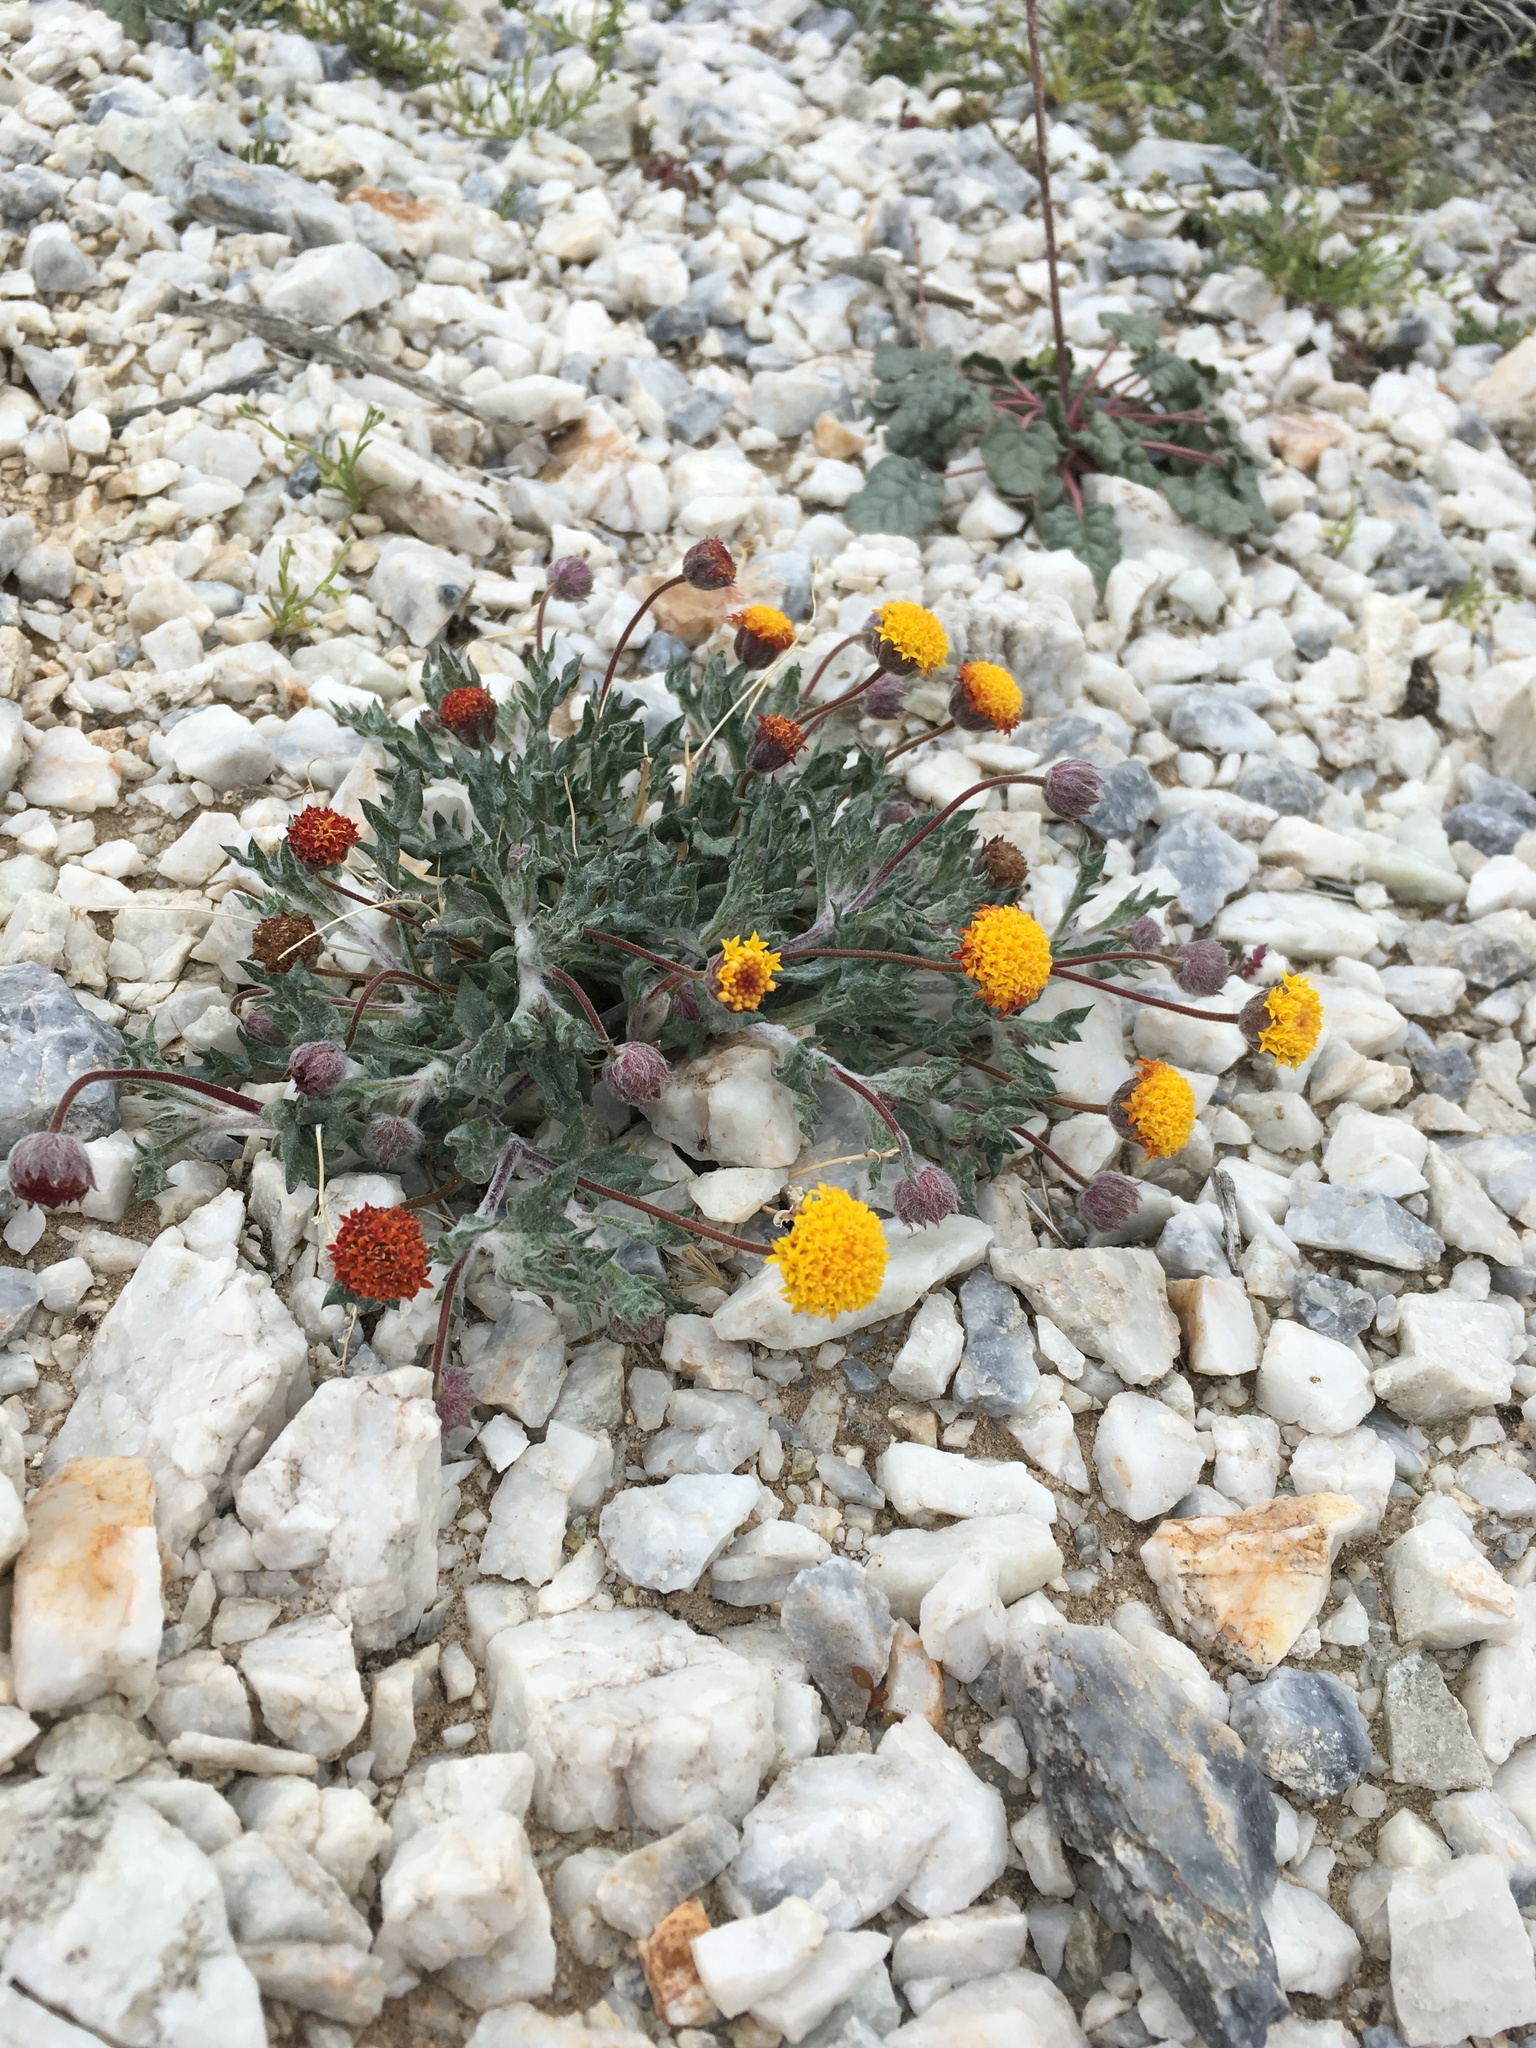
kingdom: Plantae
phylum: Tracheophyta
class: Magnoliopsida
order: Asterales
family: Asteraceae
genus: Trichoptilium
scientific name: Trichoptilium incisum
